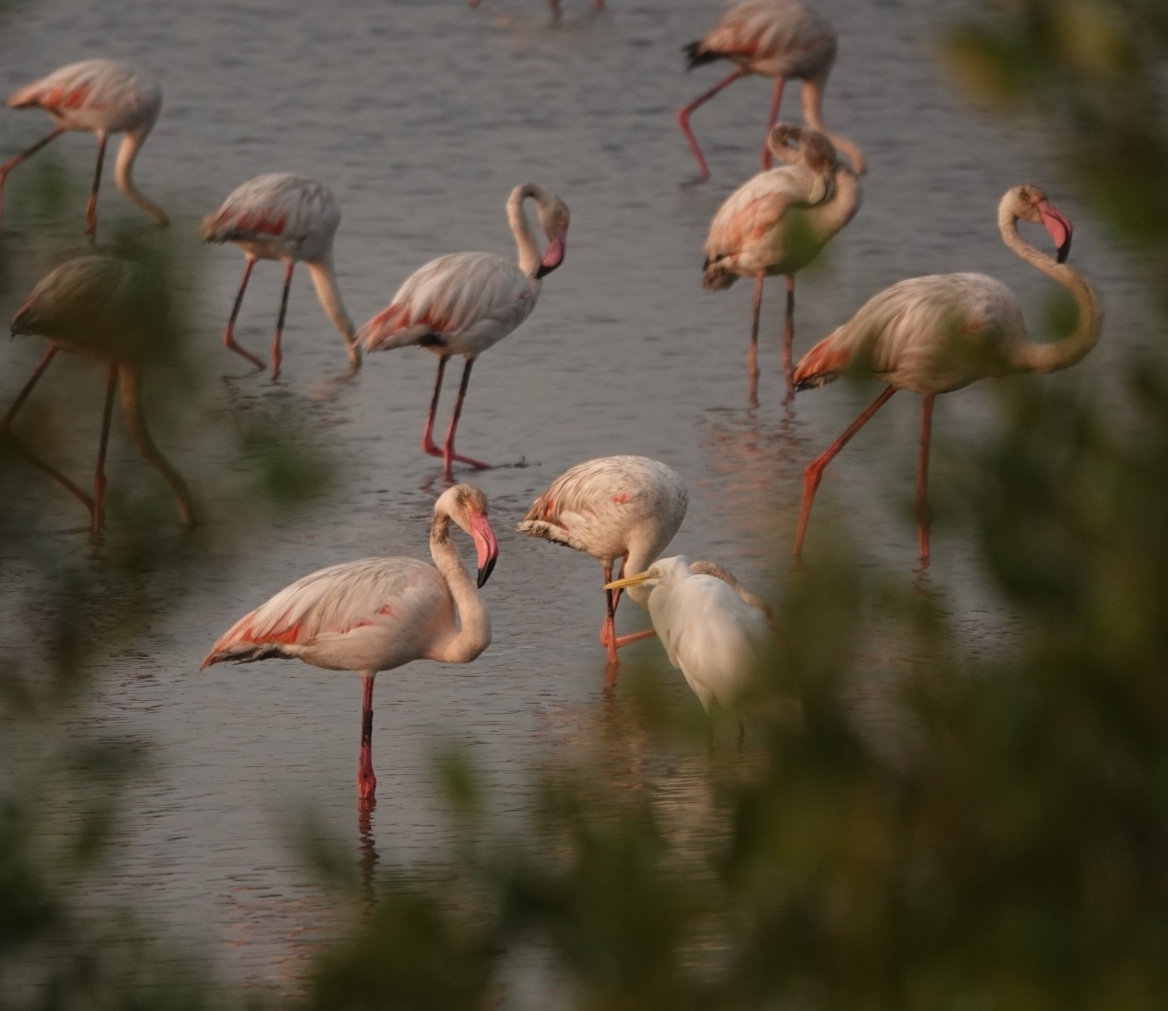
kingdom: Animalia
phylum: Chordata
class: Aves
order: Phoenicopteriformes
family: Phoenicopteridae
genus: Phoenicopterus
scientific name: Phoenicopterus roseus
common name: Greater flamingo
